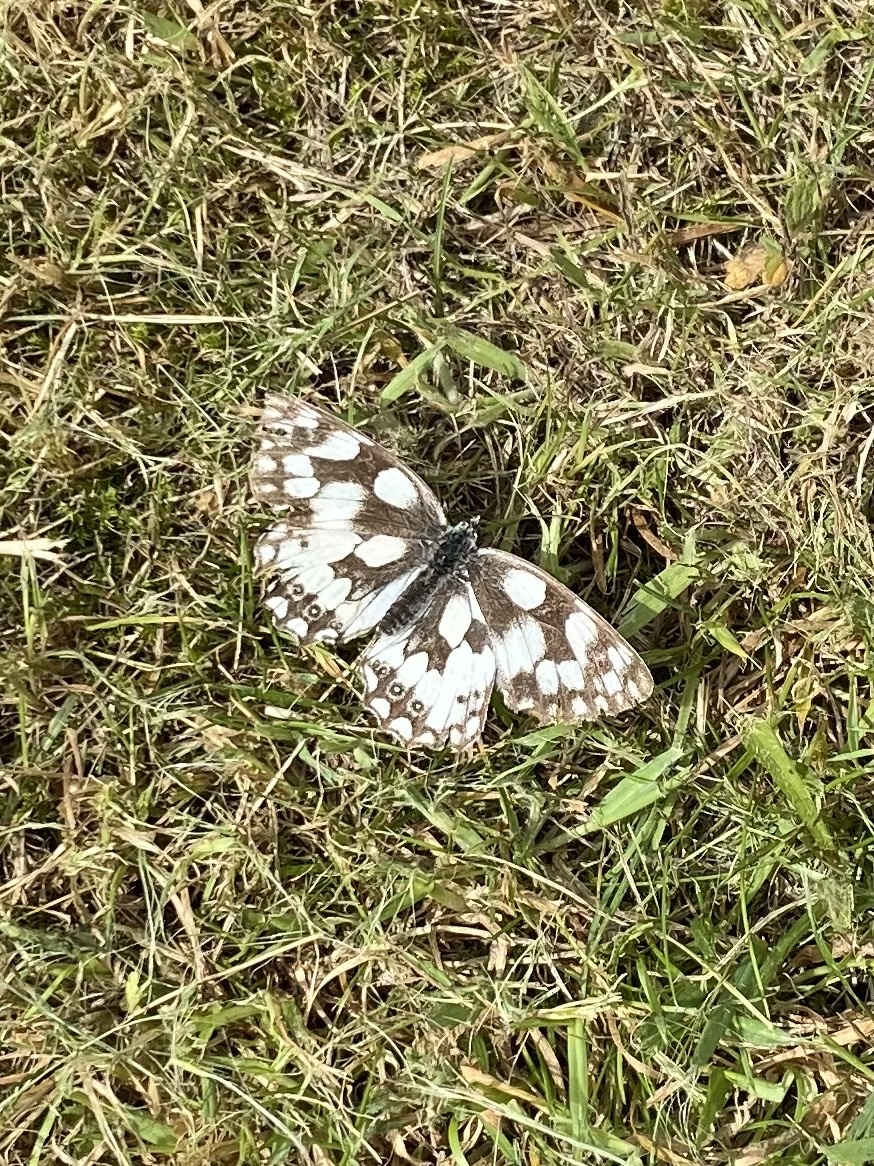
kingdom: Animalia
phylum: Arthropoda
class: Insecta
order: Lepidoptera
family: Nymphalidae
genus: Melanargia
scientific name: Melanargia galathea
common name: Marbled white
